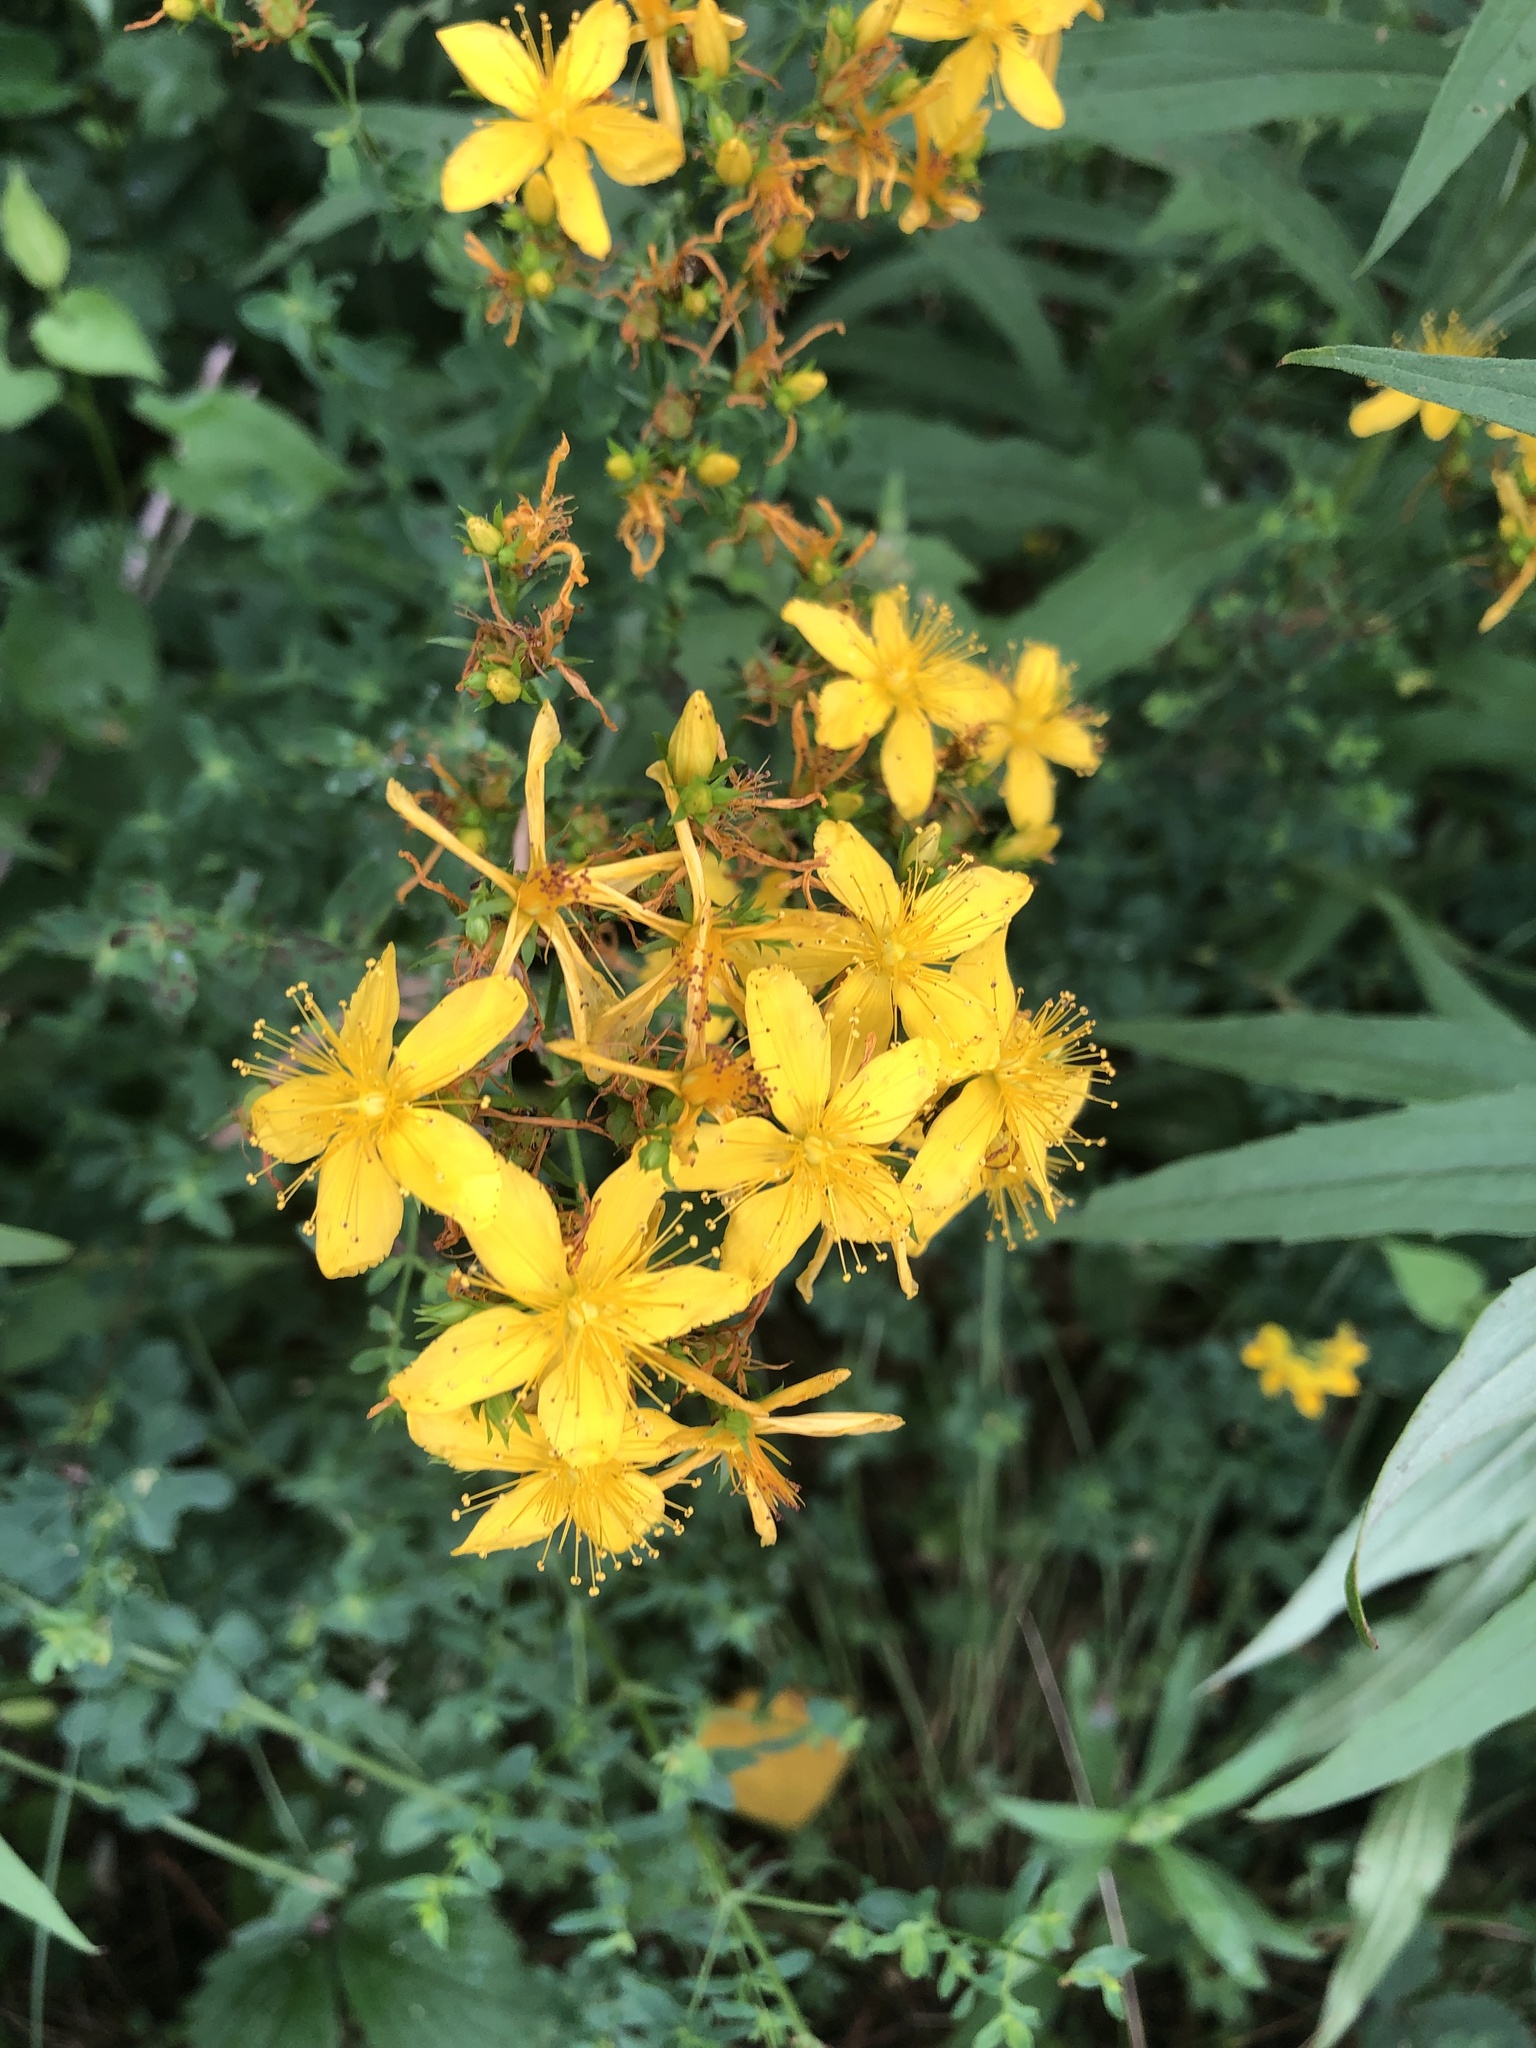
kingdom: Plantae
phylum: Tracheophyta
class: Magnoliopsida
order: Malpighiales
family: Hypericaceae
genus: Hypericum
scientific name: Hypericum perforatum
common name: Common st. johnswort
